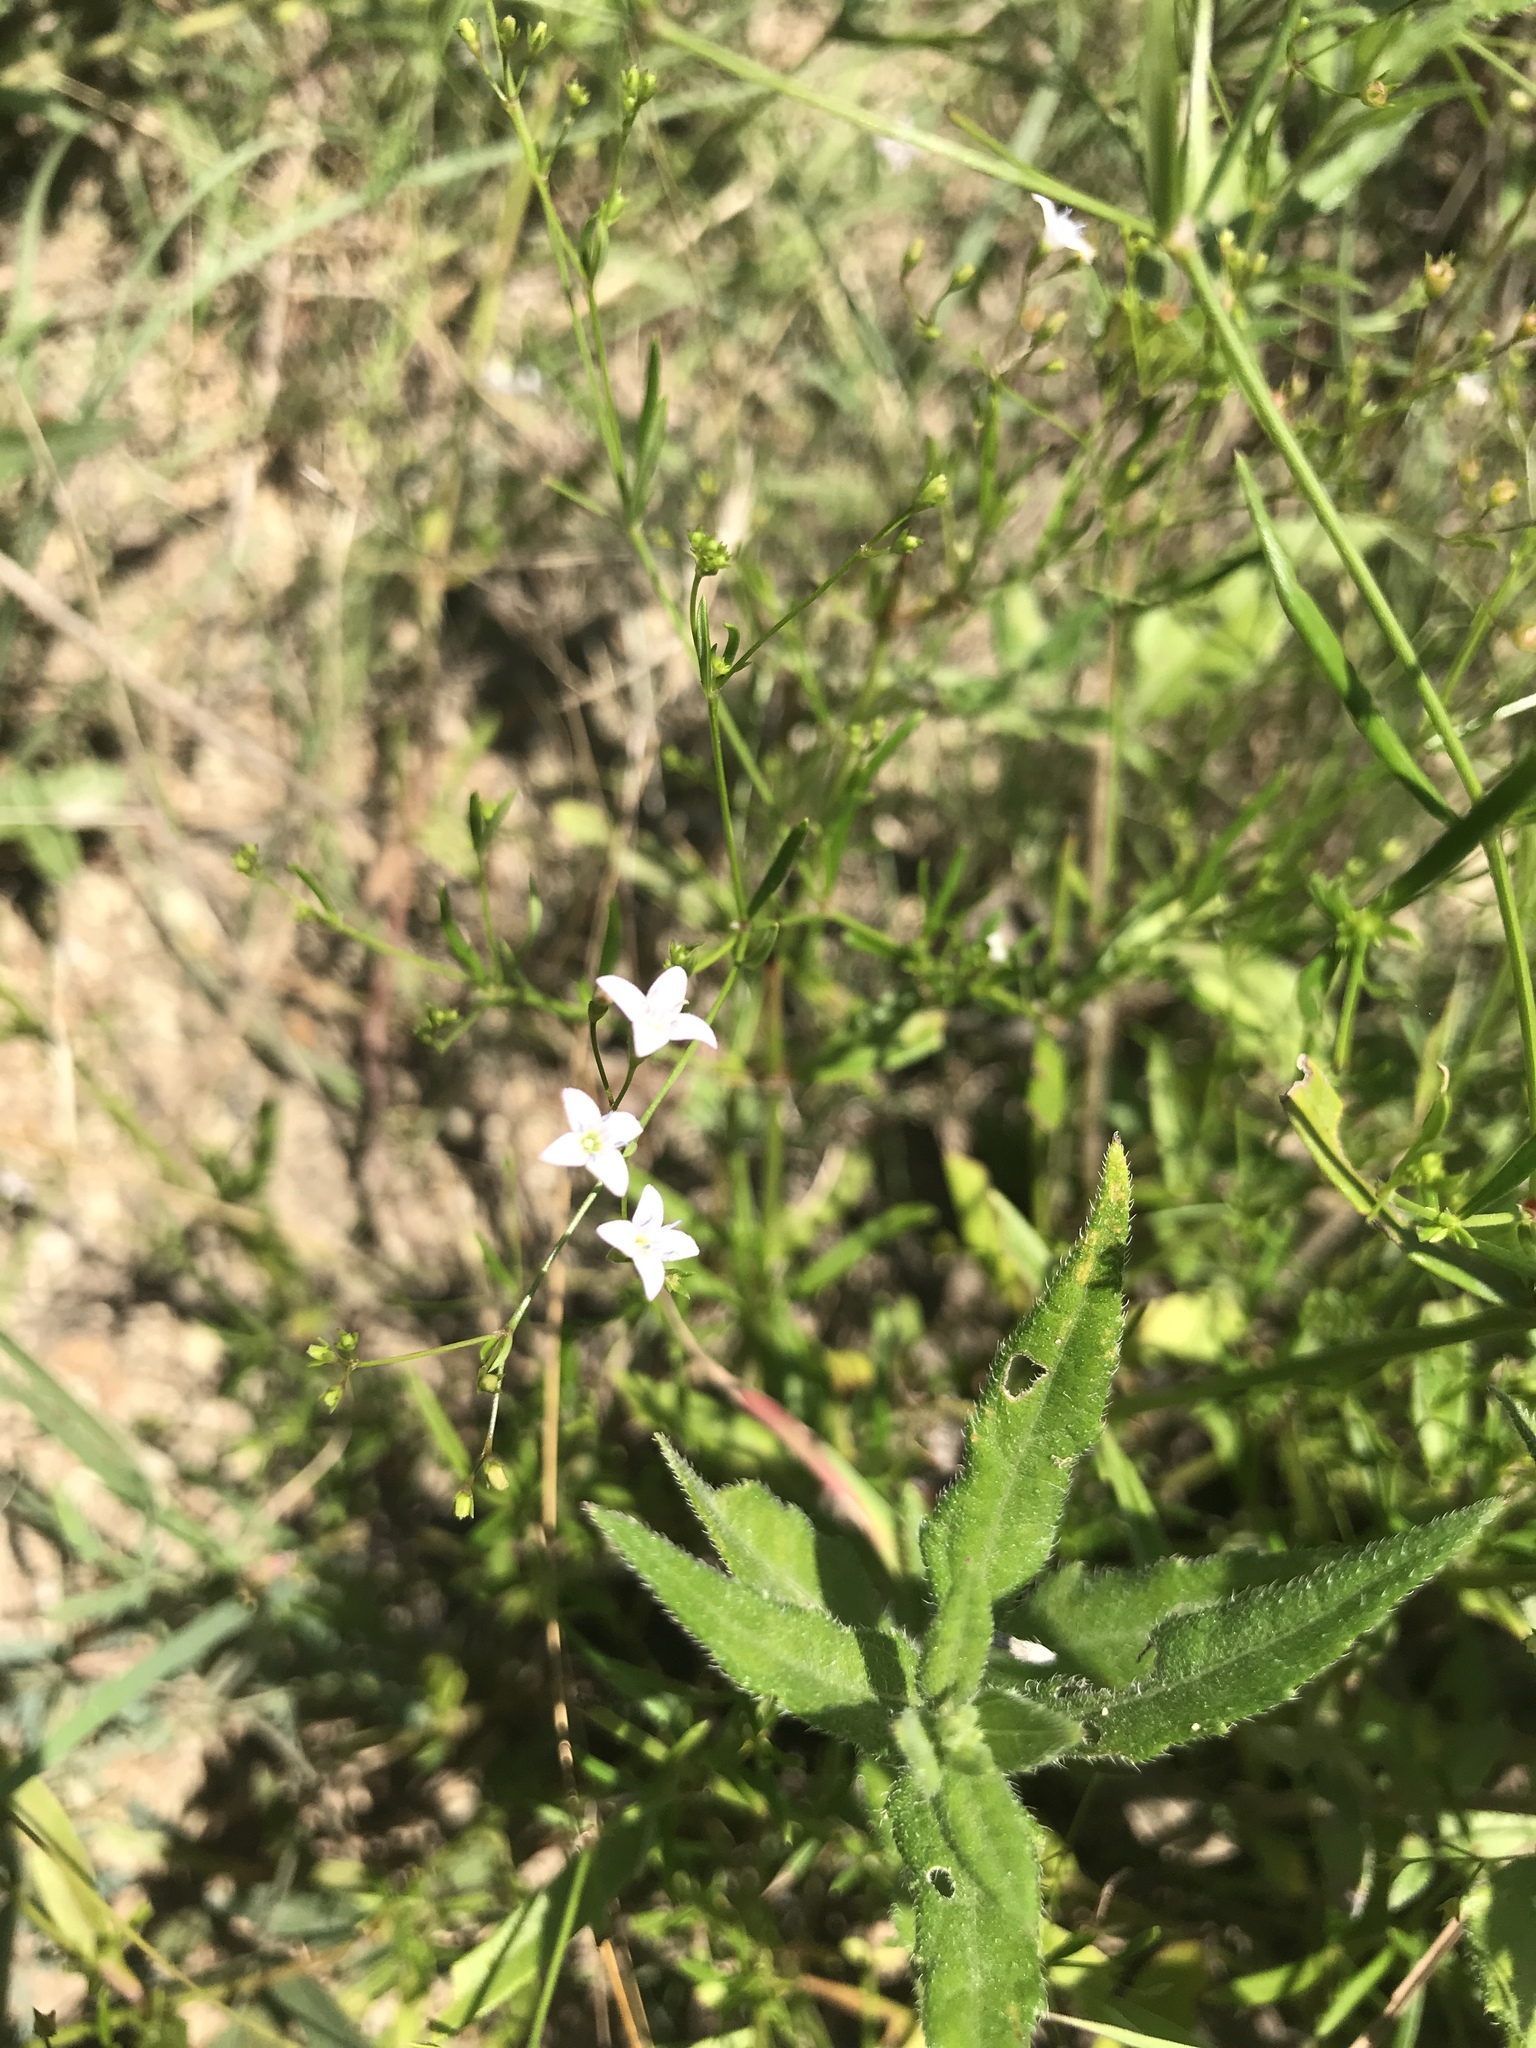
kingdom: Plantae
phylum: Tracheophyta
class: Magnoliopsida
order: Gentianales
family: Rubiaceae
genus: Stenaria
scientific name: Stenaria nigricans
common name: Diamondflowers
